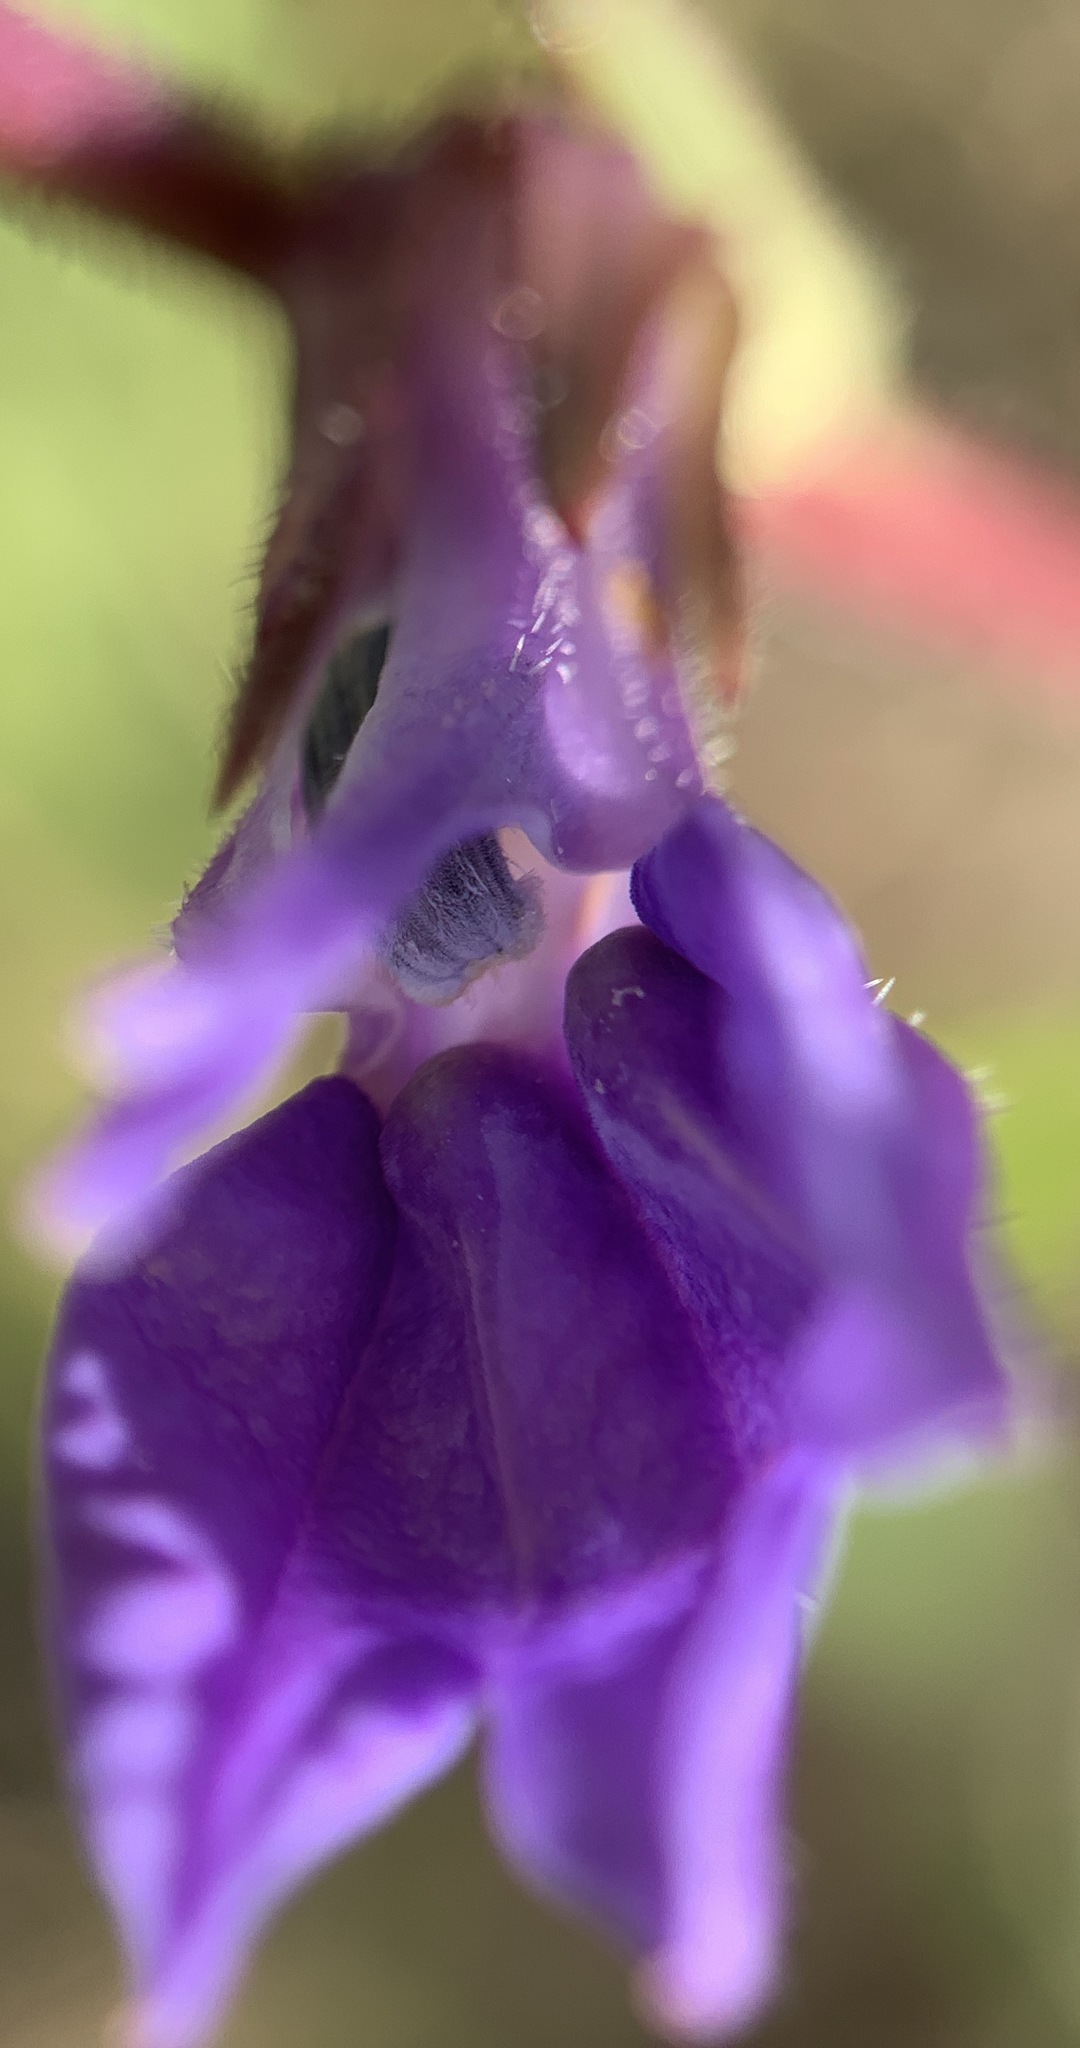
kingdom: Plantae
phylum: Tracheophyta
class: Magnoliopsida
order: Asterales
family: Campanulaceae
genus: Lobelia
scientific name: Lobelia puberula
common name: Purple dewdrop
